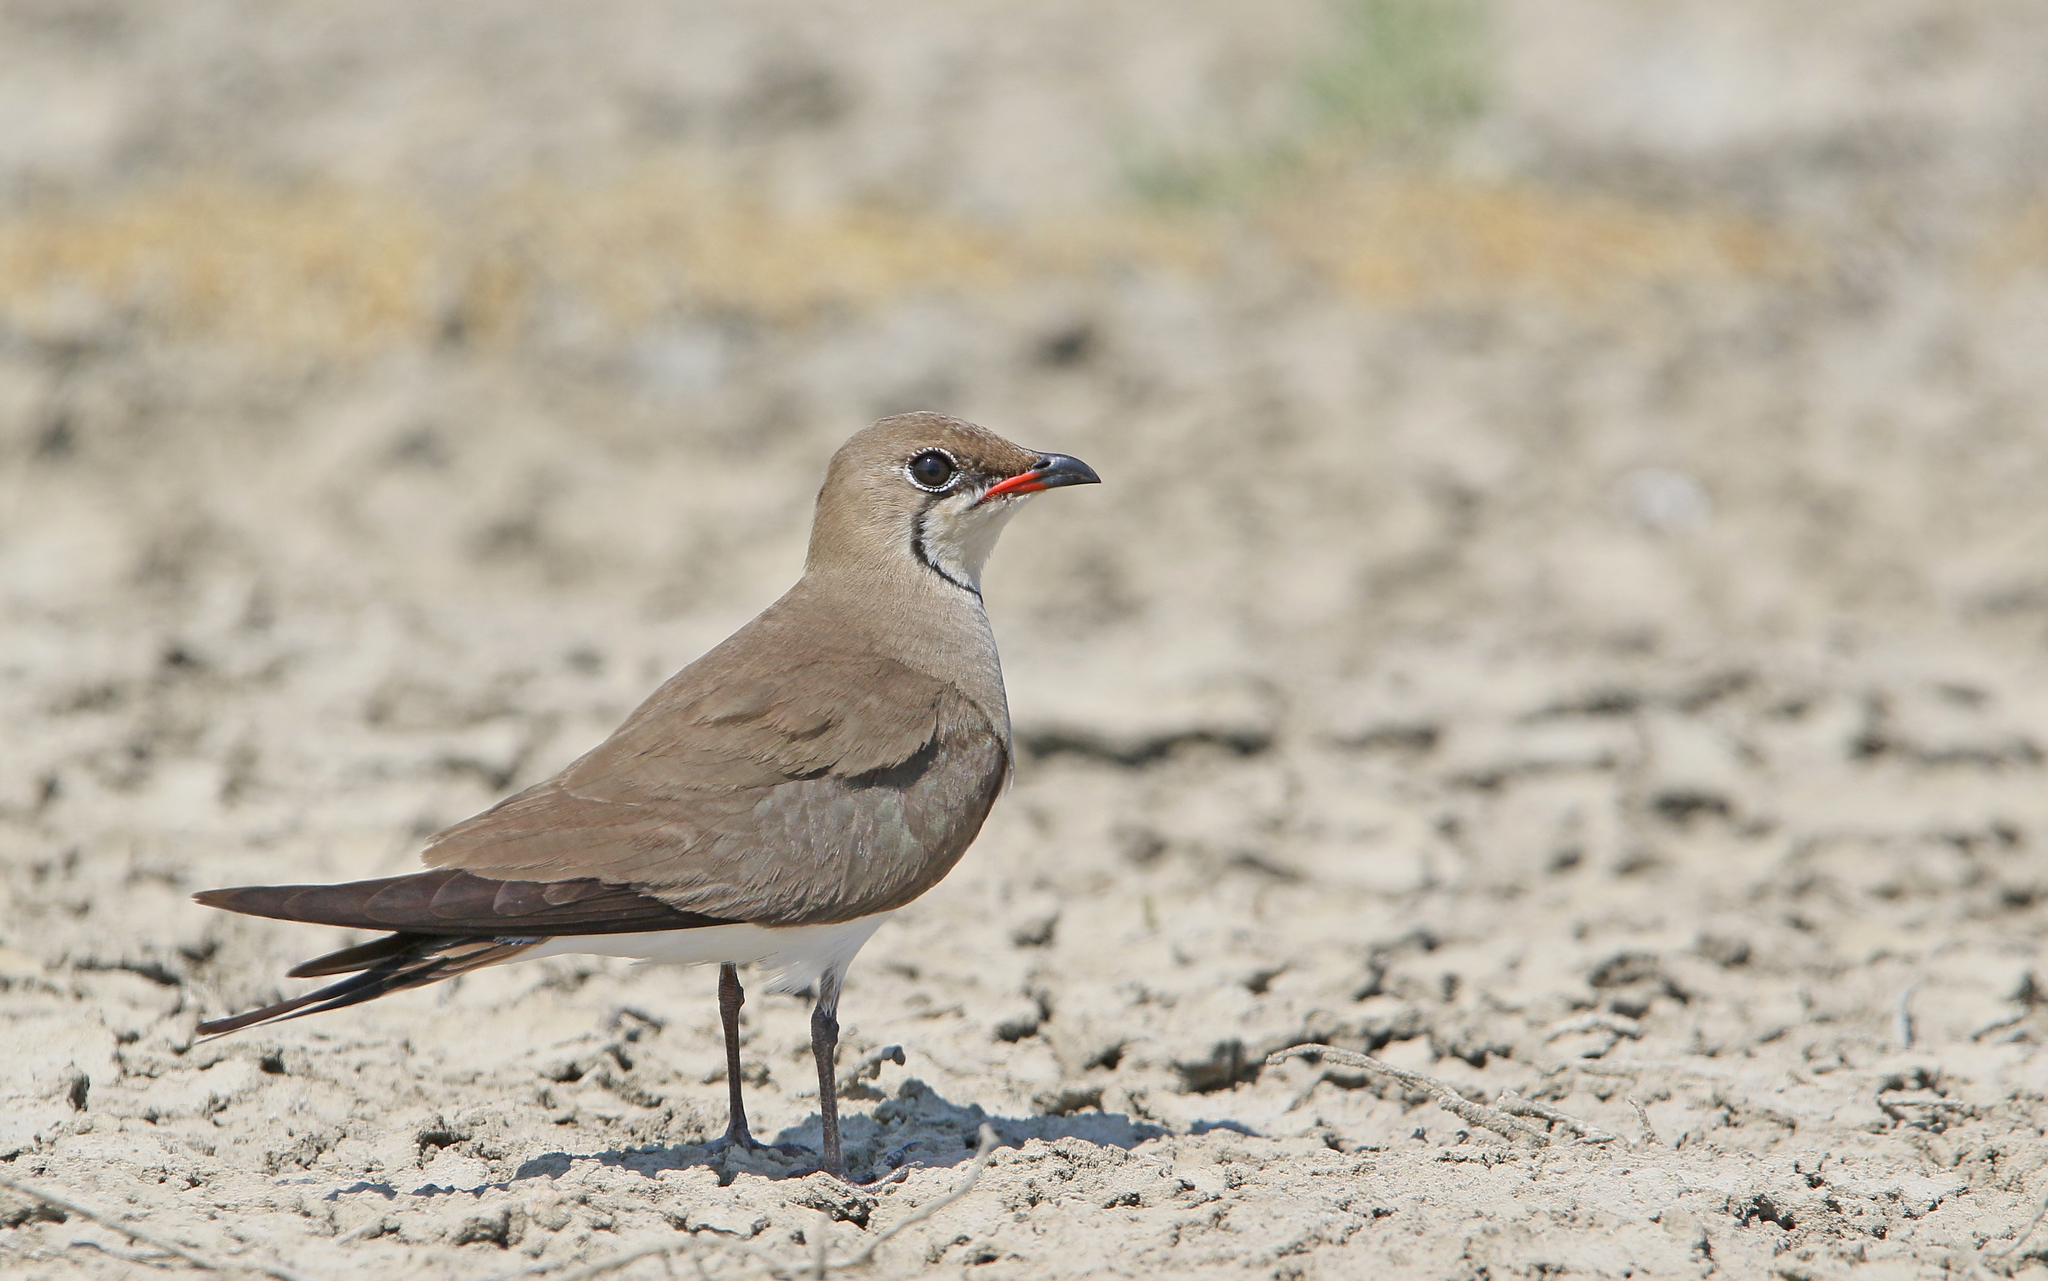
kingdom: Animalia
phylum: Chordata
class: Aves
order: Charadriiformes
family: Glareolidae
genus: Glareola
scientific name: Glareola pratincola
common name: Collared pratincole
